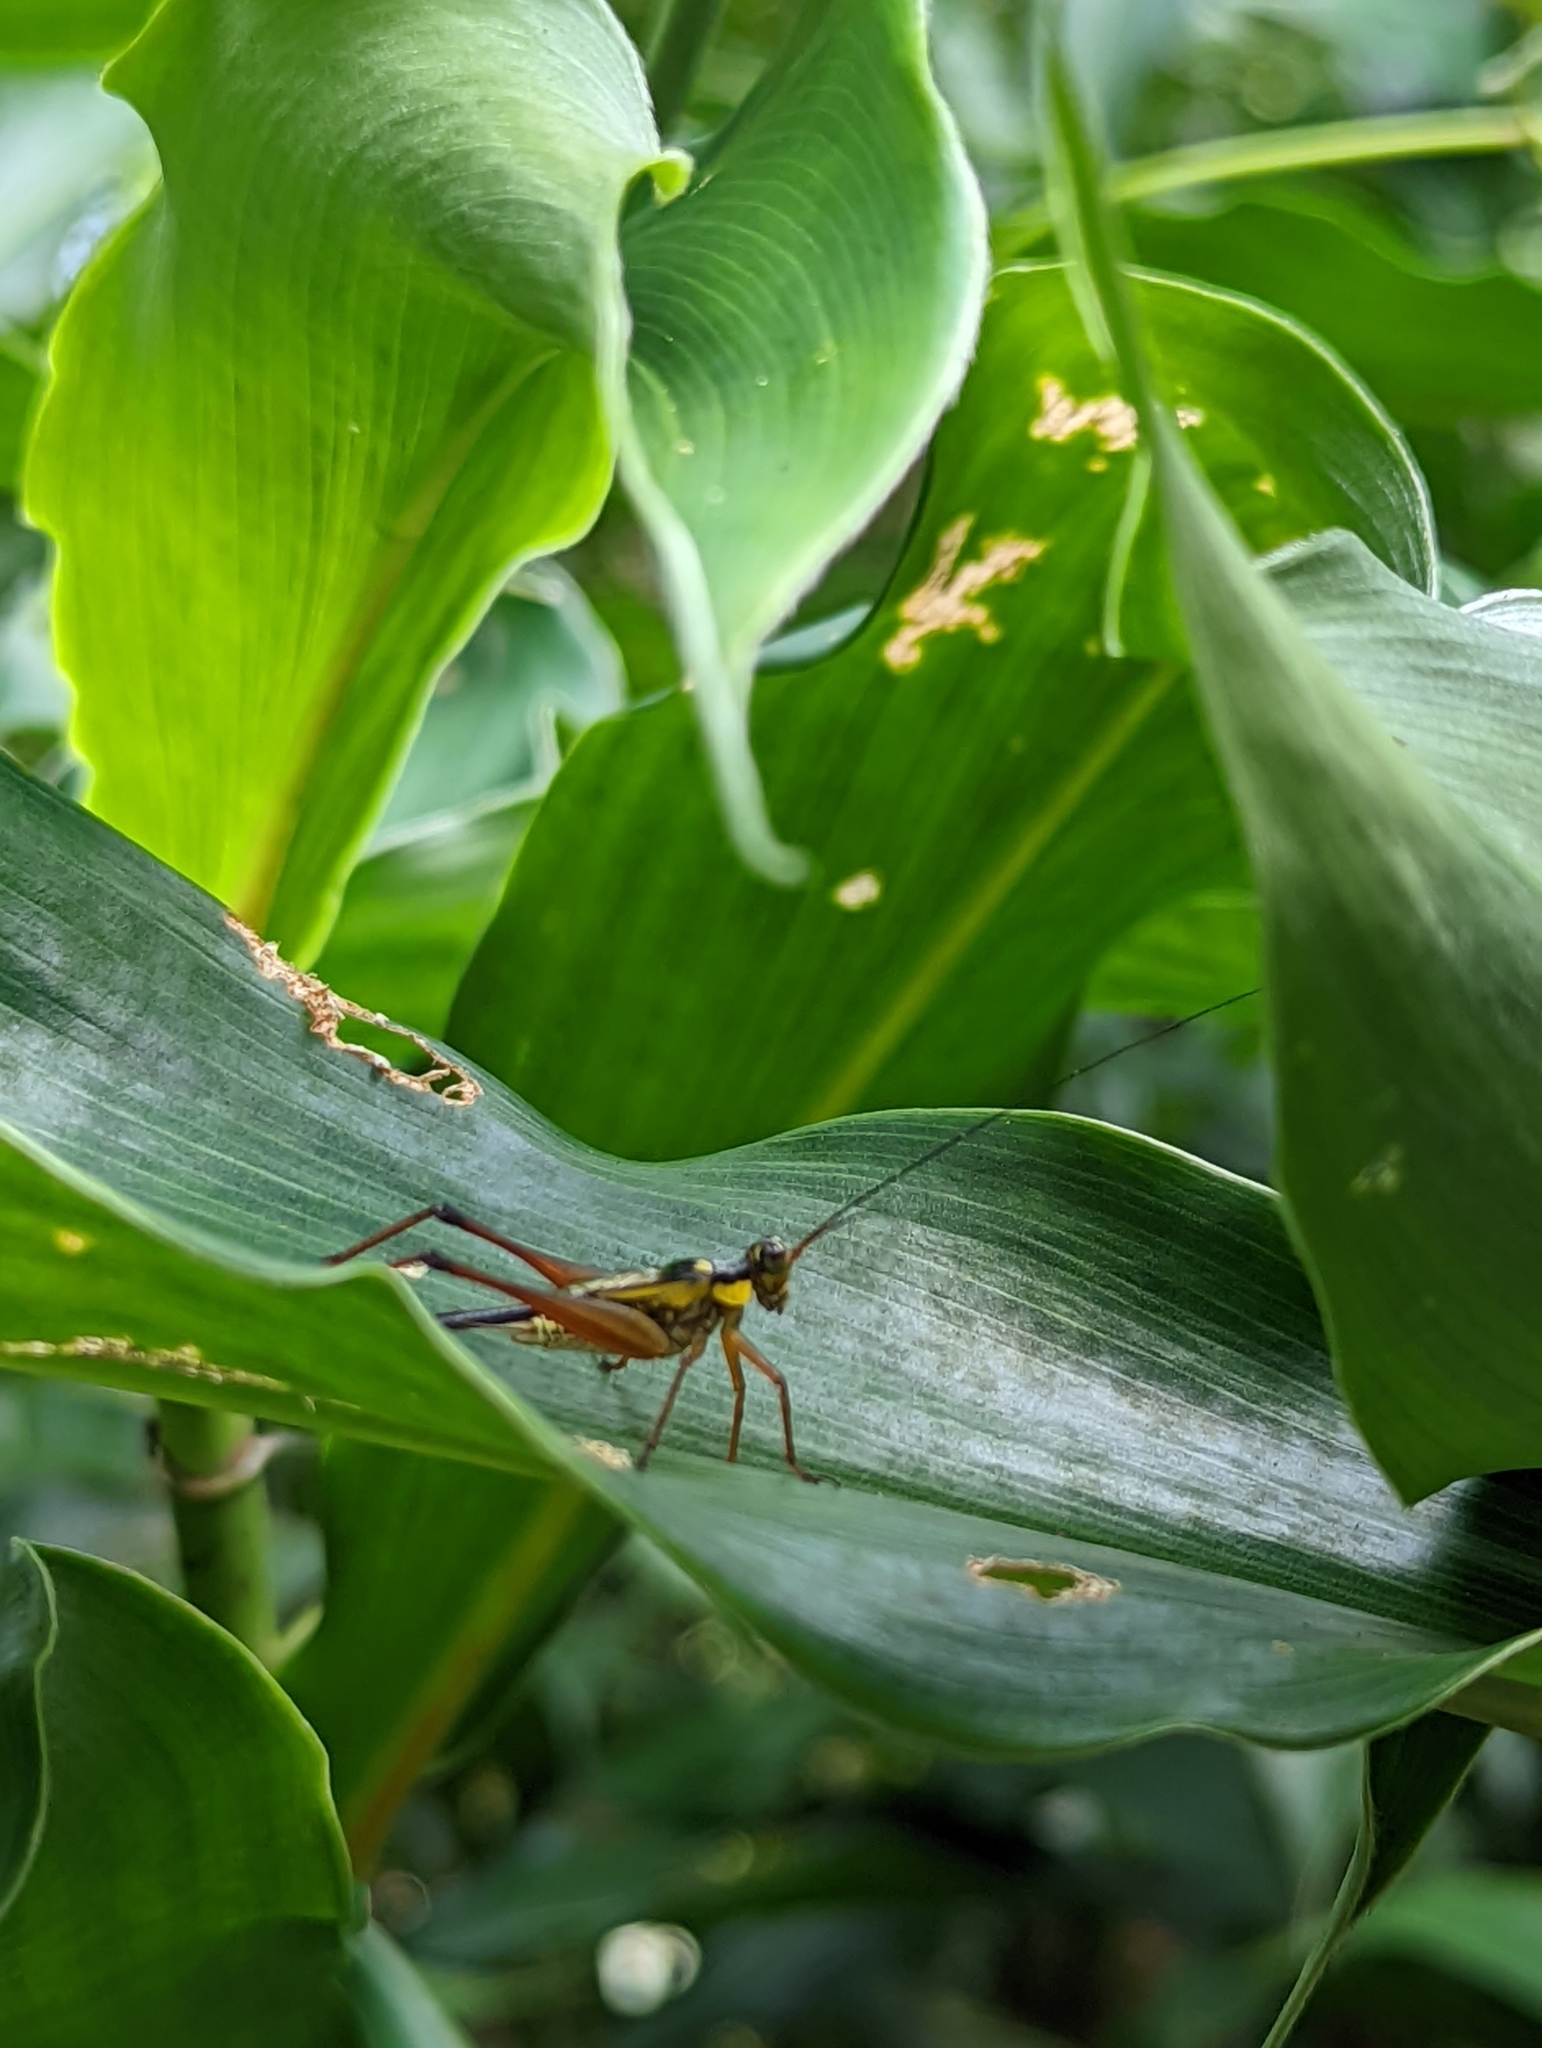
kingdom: Animalia
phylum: Arthropoda
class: Insecta
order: Orthoptera
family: Gryllidae
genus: Nisitrus
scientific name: Nisitrus malaya
